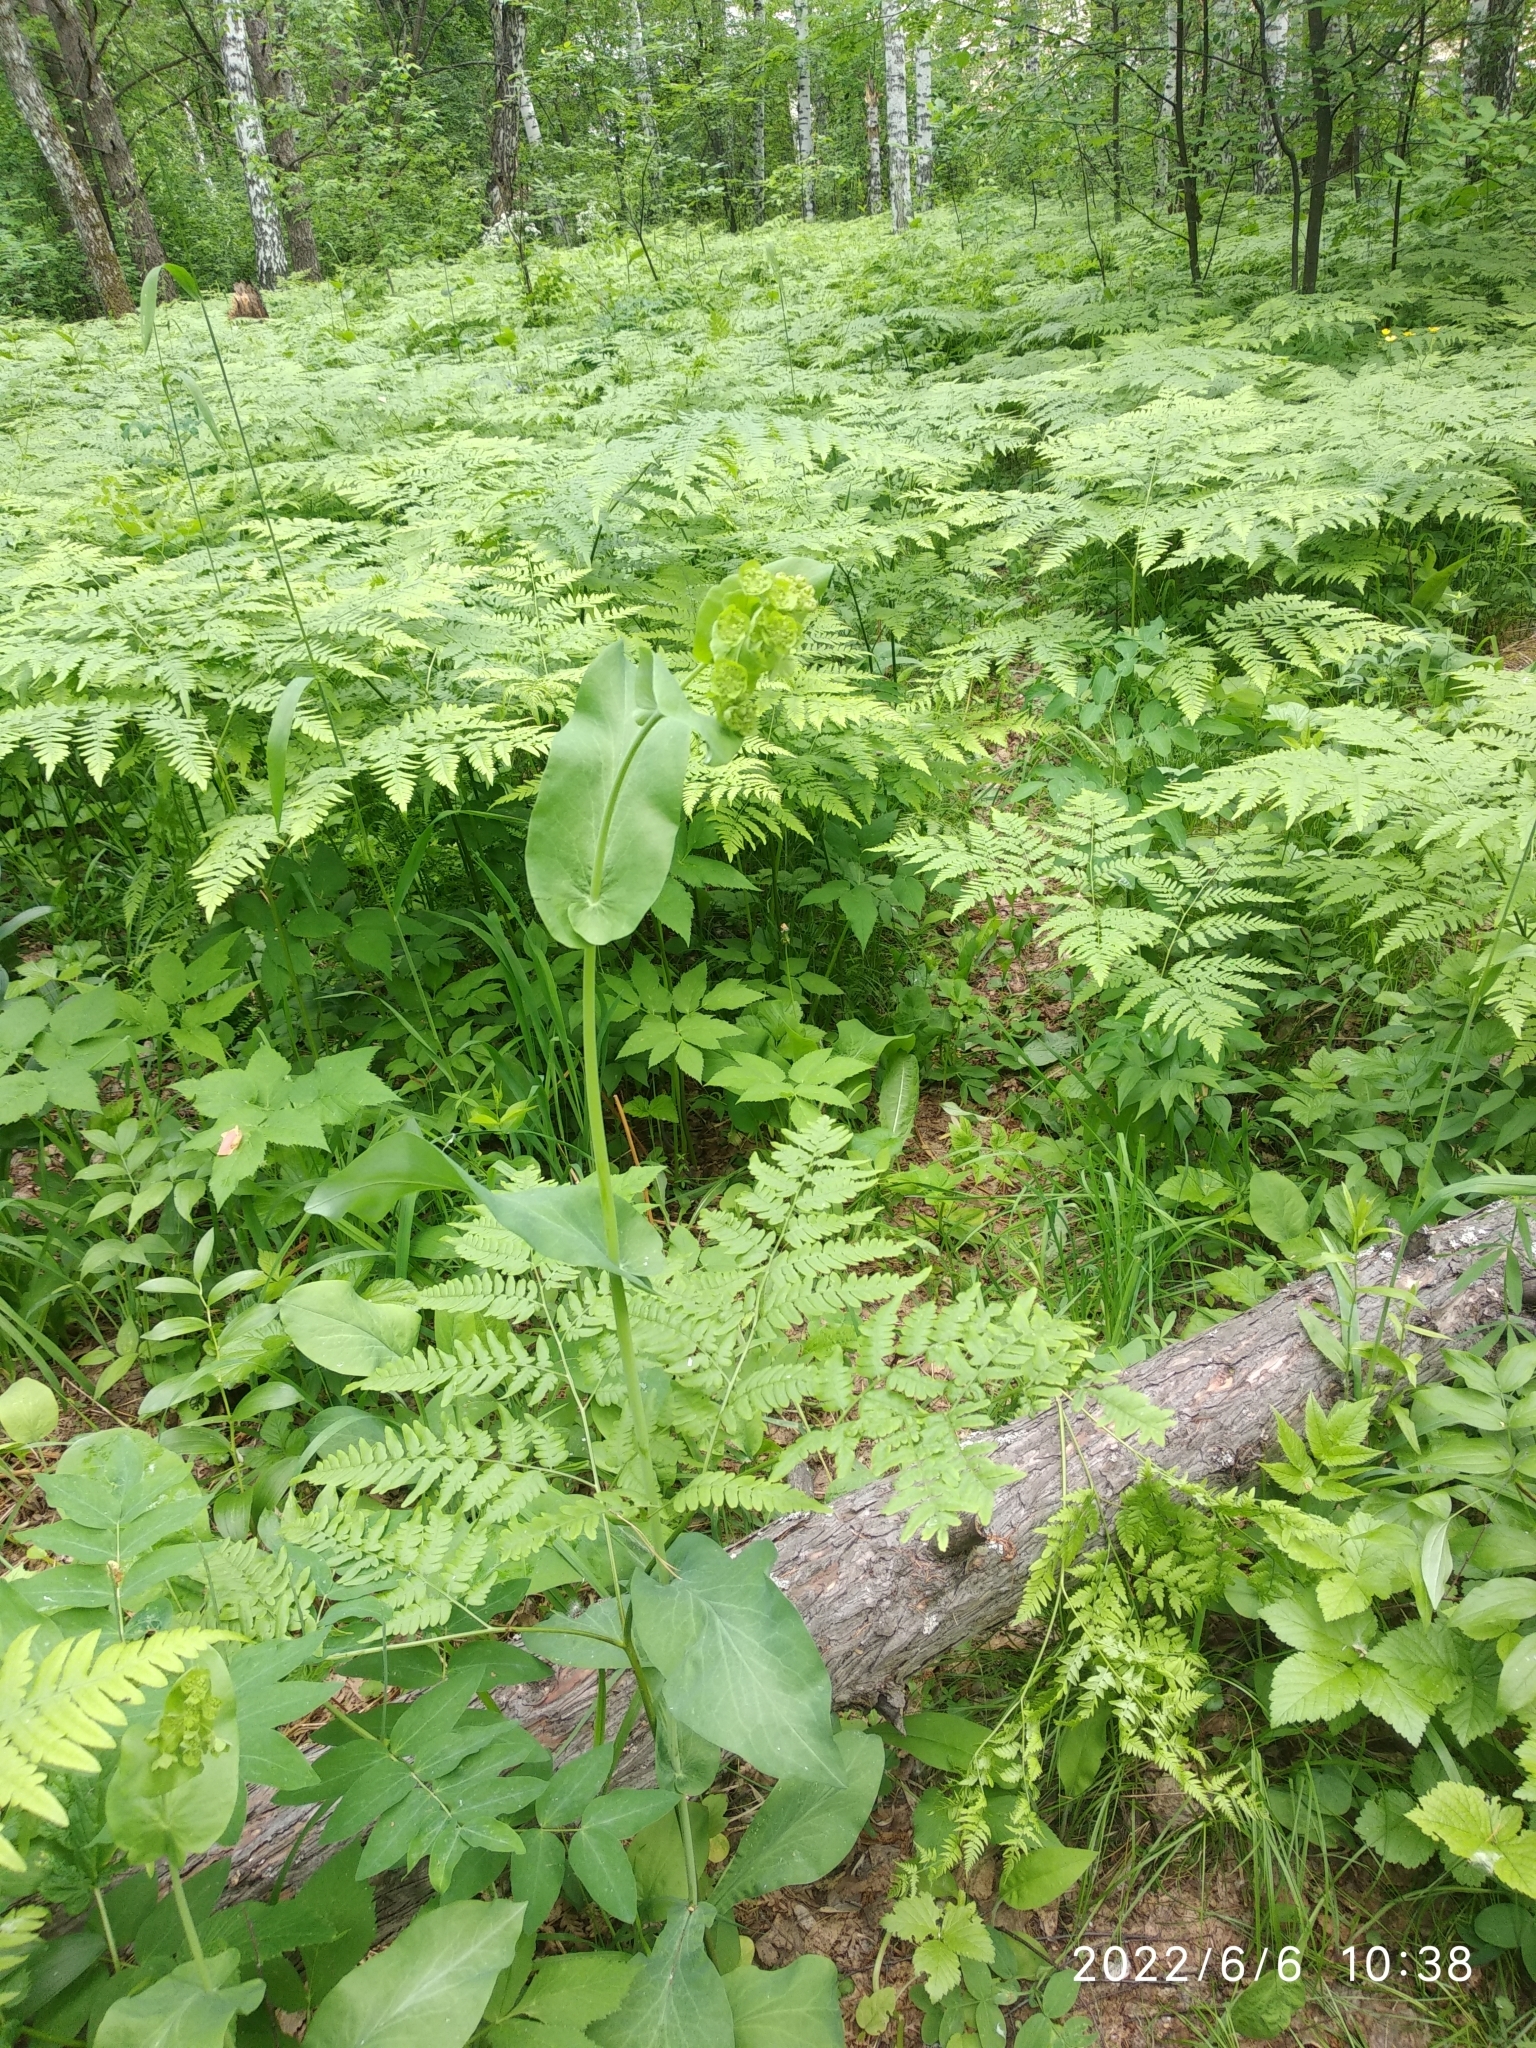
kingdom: Plantae
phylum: Tracheophyta
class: Magnoliopsida
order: Apiales
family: Apiaceae
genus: Bupleurum
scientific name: Bupleurum aureum
